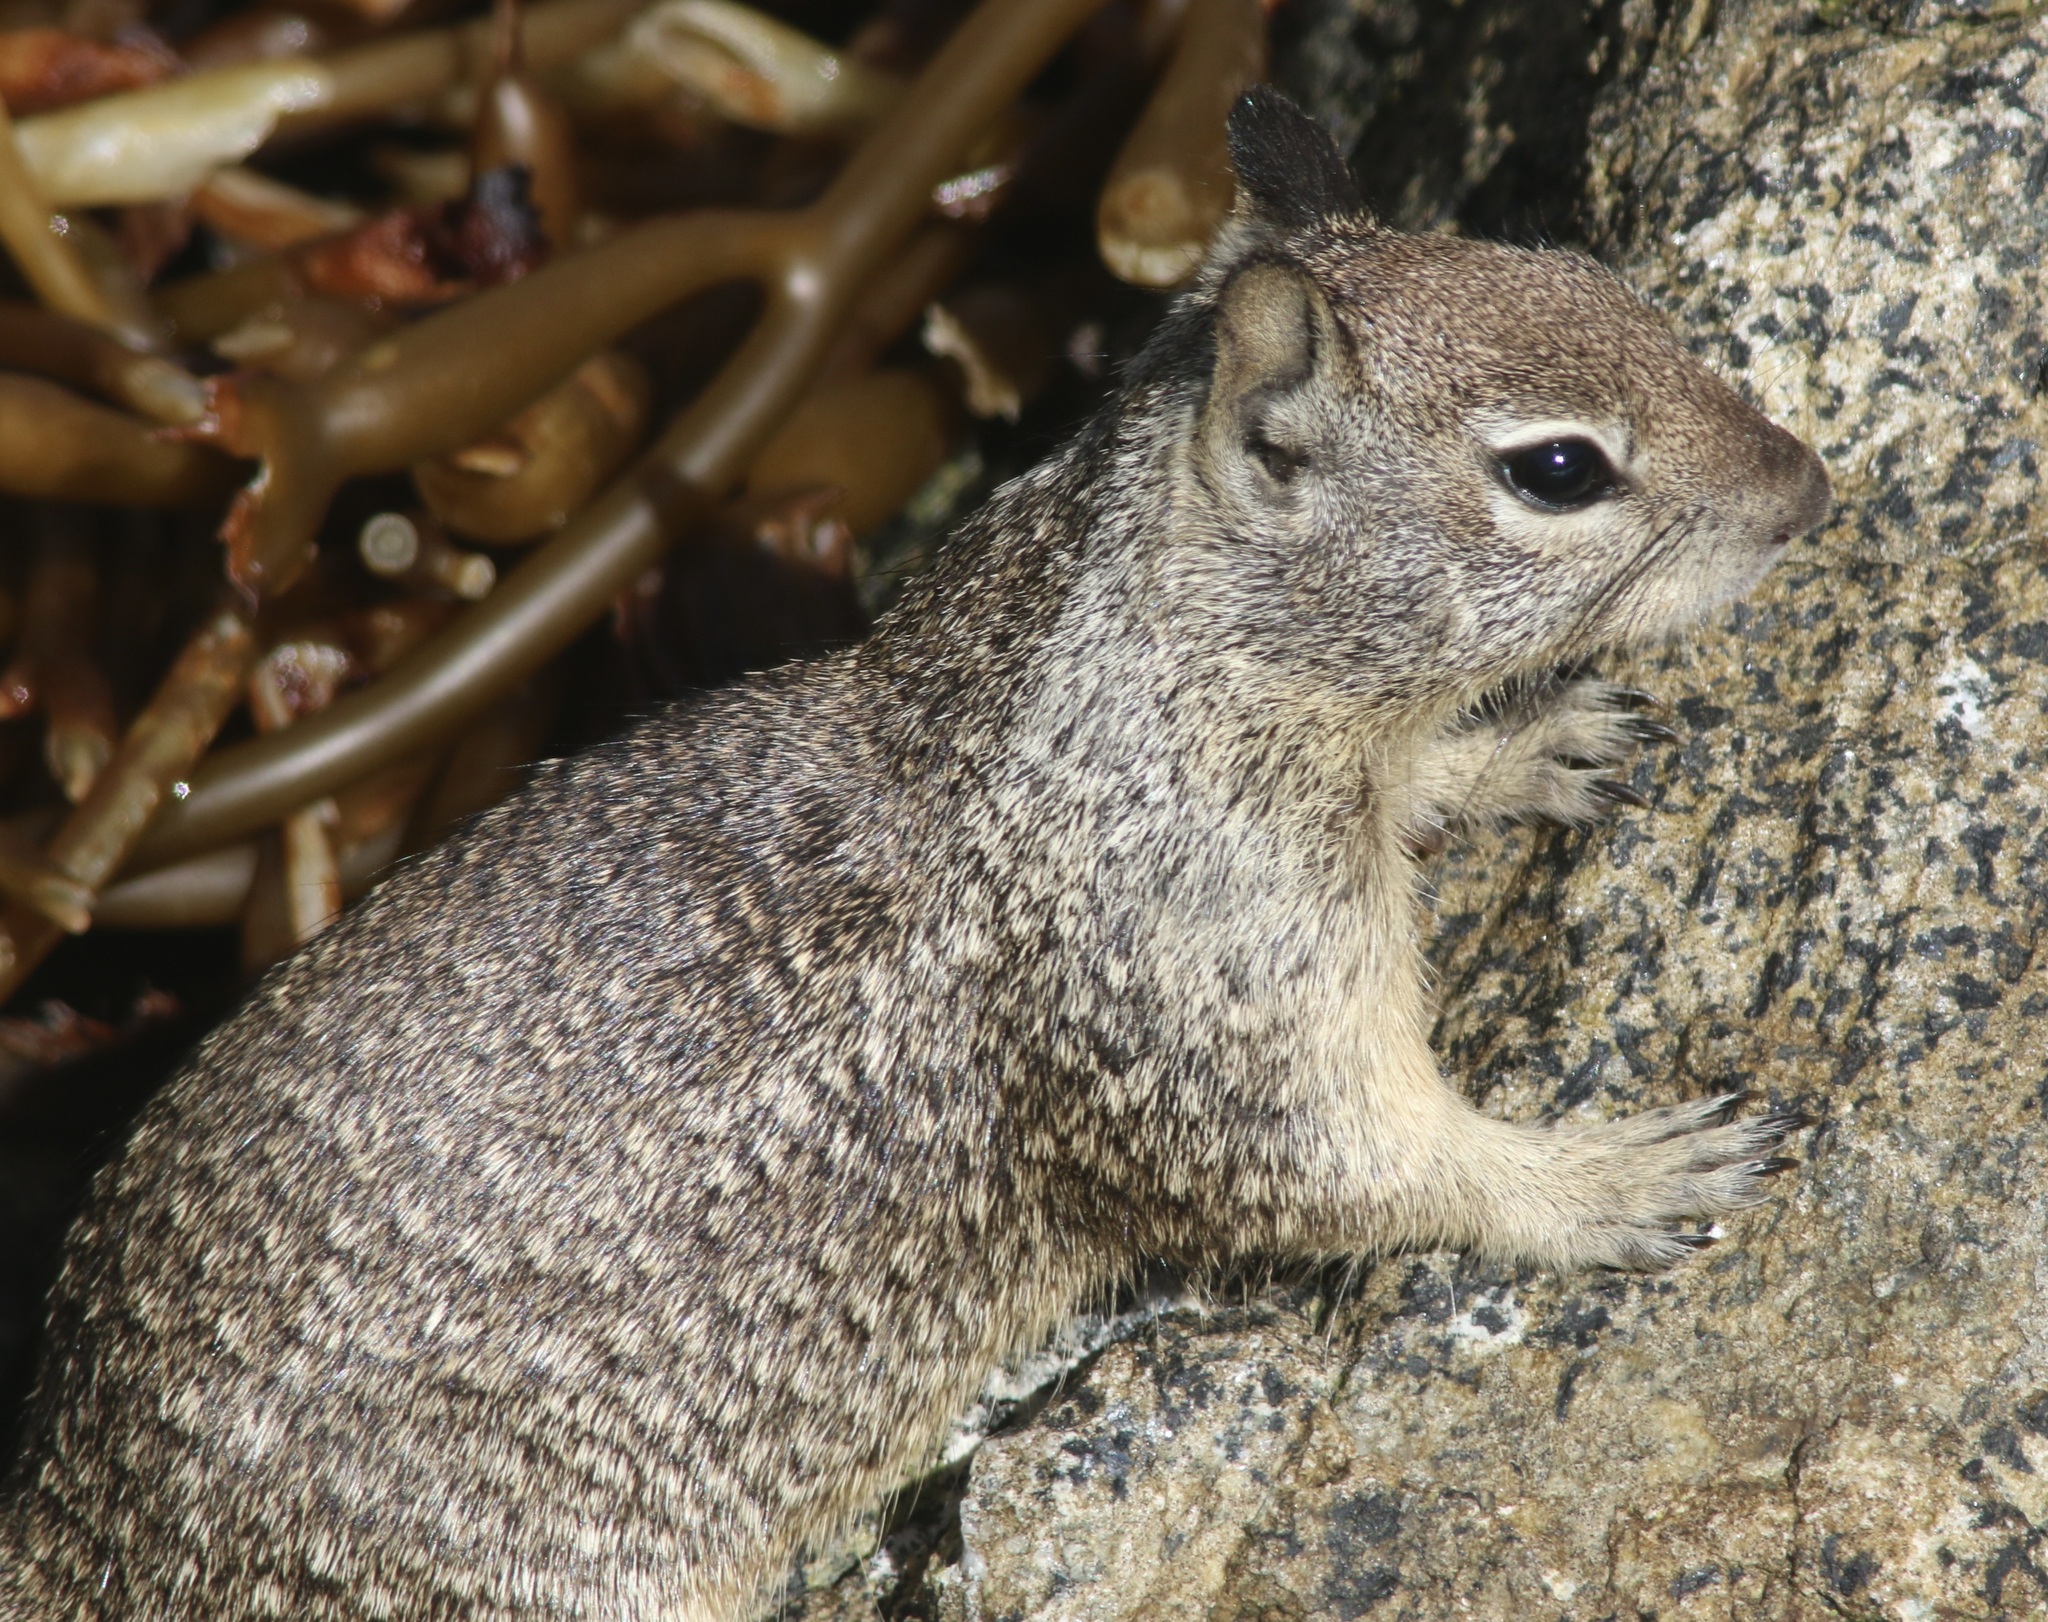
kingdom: Animalia
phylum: Chordata
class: Mammalia
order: Rodentia
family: Sciuridae
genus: Otospermophilus
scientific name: Otospermophilus beecheyi
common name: California ground squirrel
